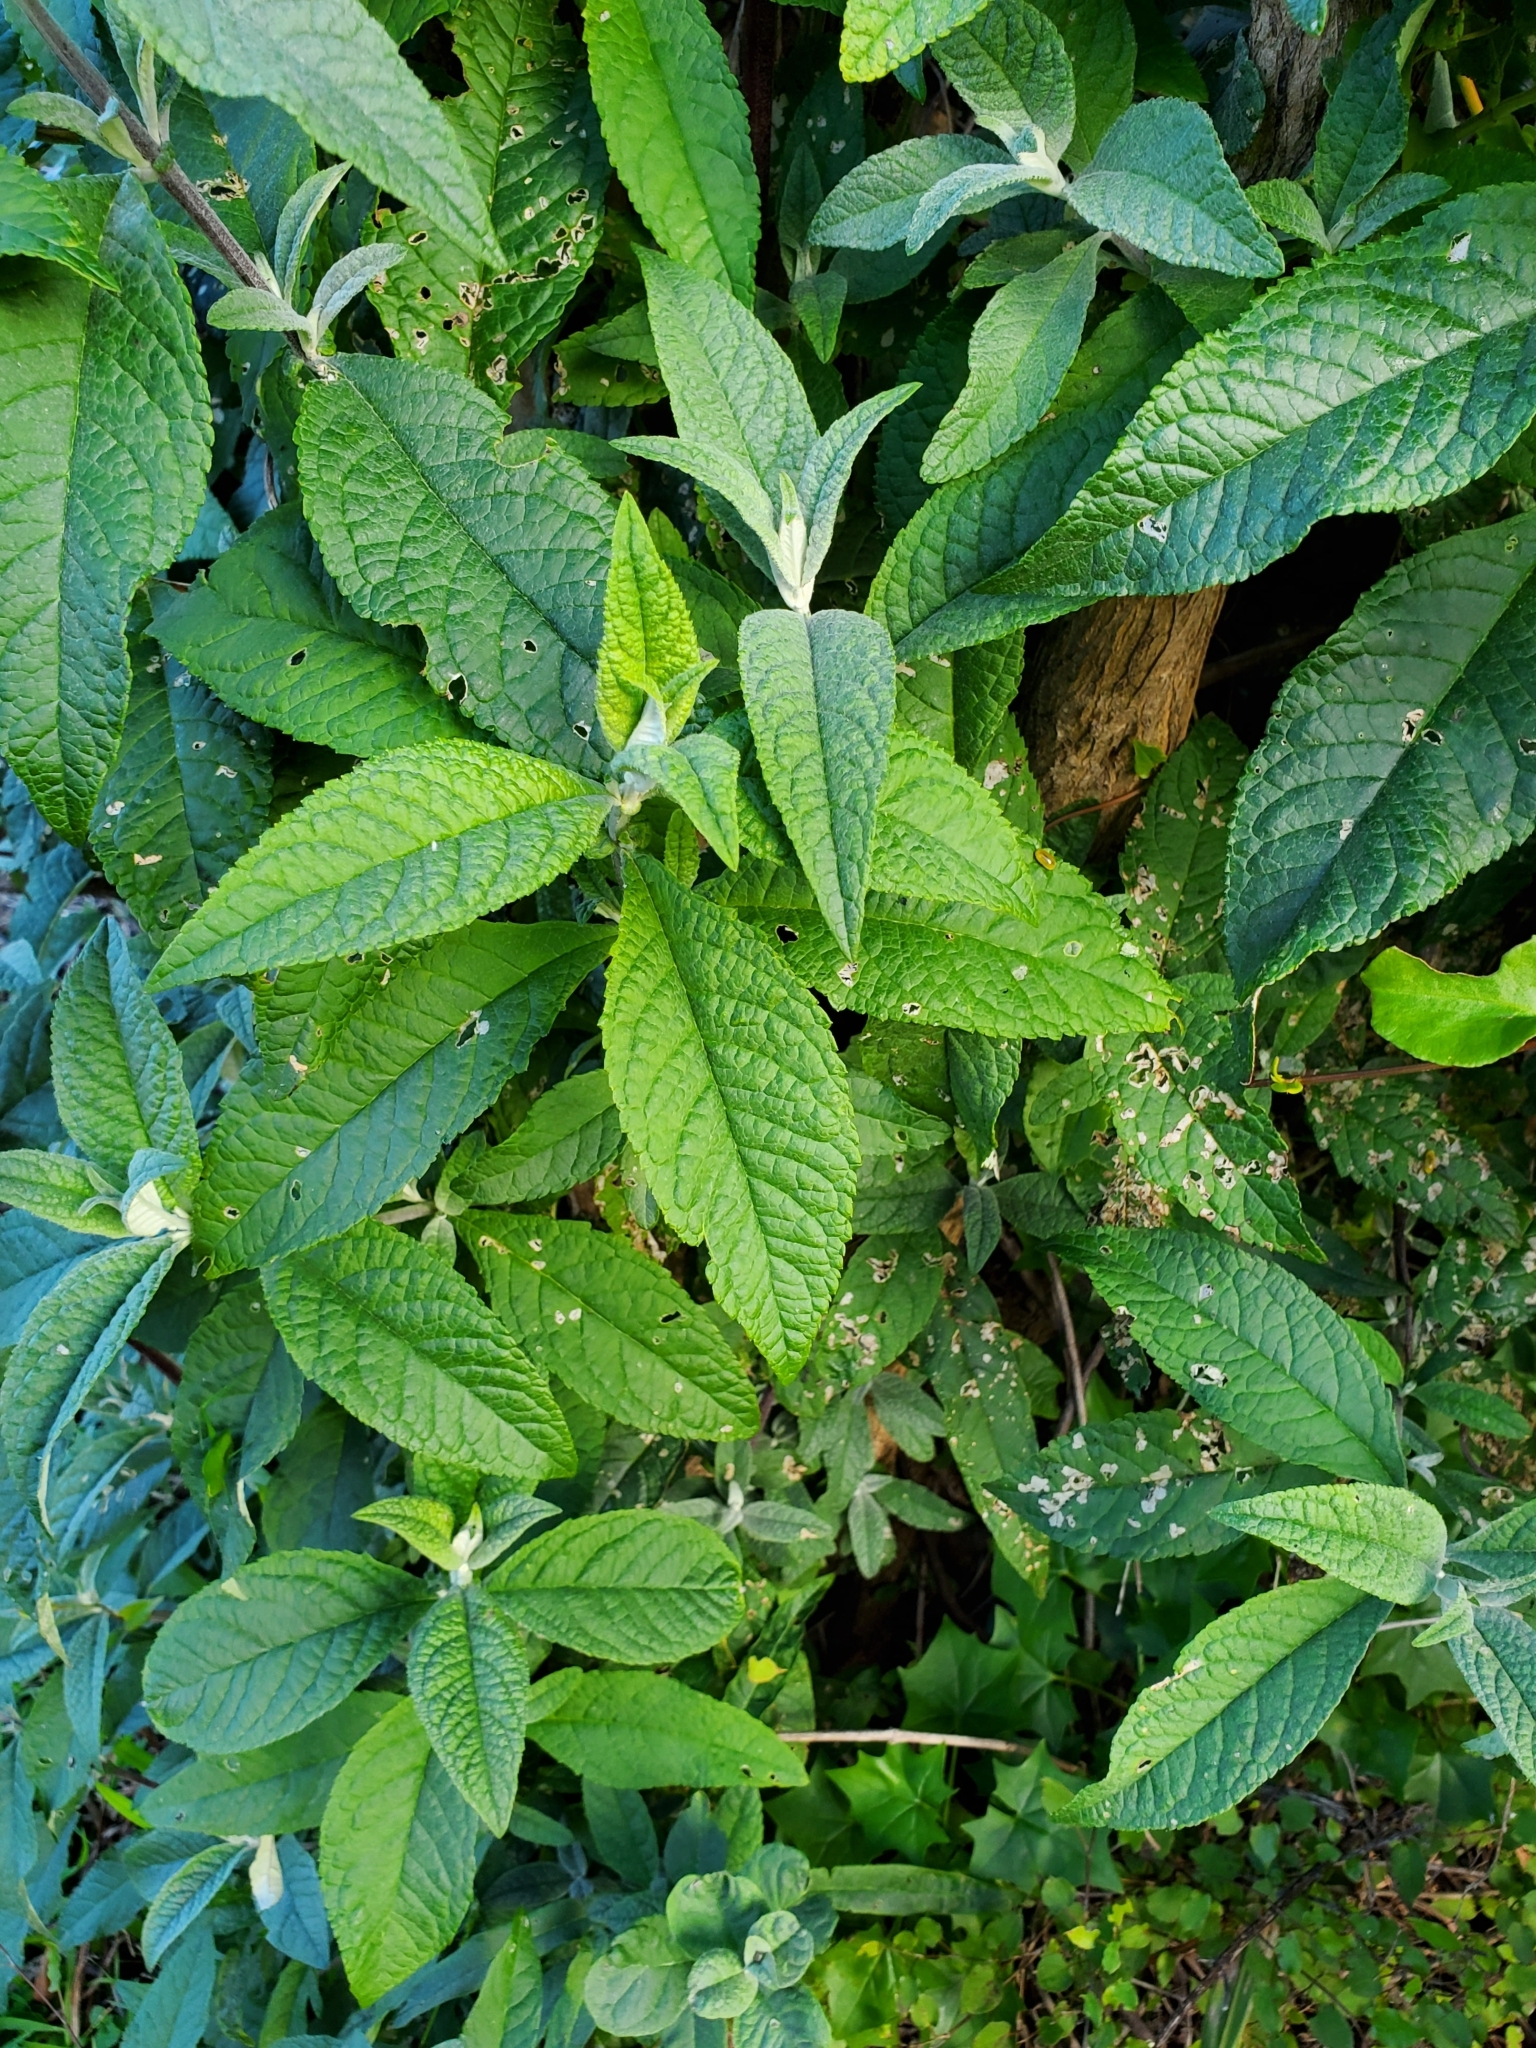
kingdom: Plantae
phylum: Tracheophyta
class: Magnoliopsida
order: Lamiales
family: Scrophulariaceae
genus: Buddleja
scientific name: Buddleja davidii
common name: Butterfly-bush
